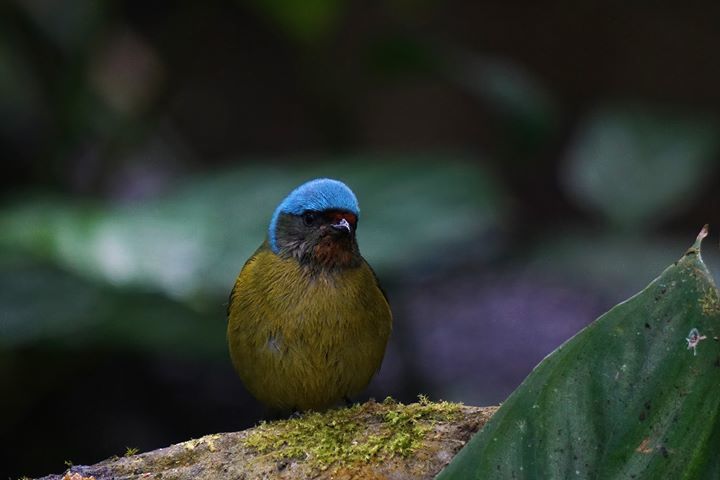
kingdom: Animalia
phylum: Chordata
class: Aves
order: Passeriformes
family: Fringillidae
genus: Euphonia
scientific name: Euphonia elegantissima
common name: Elegant euphonia
